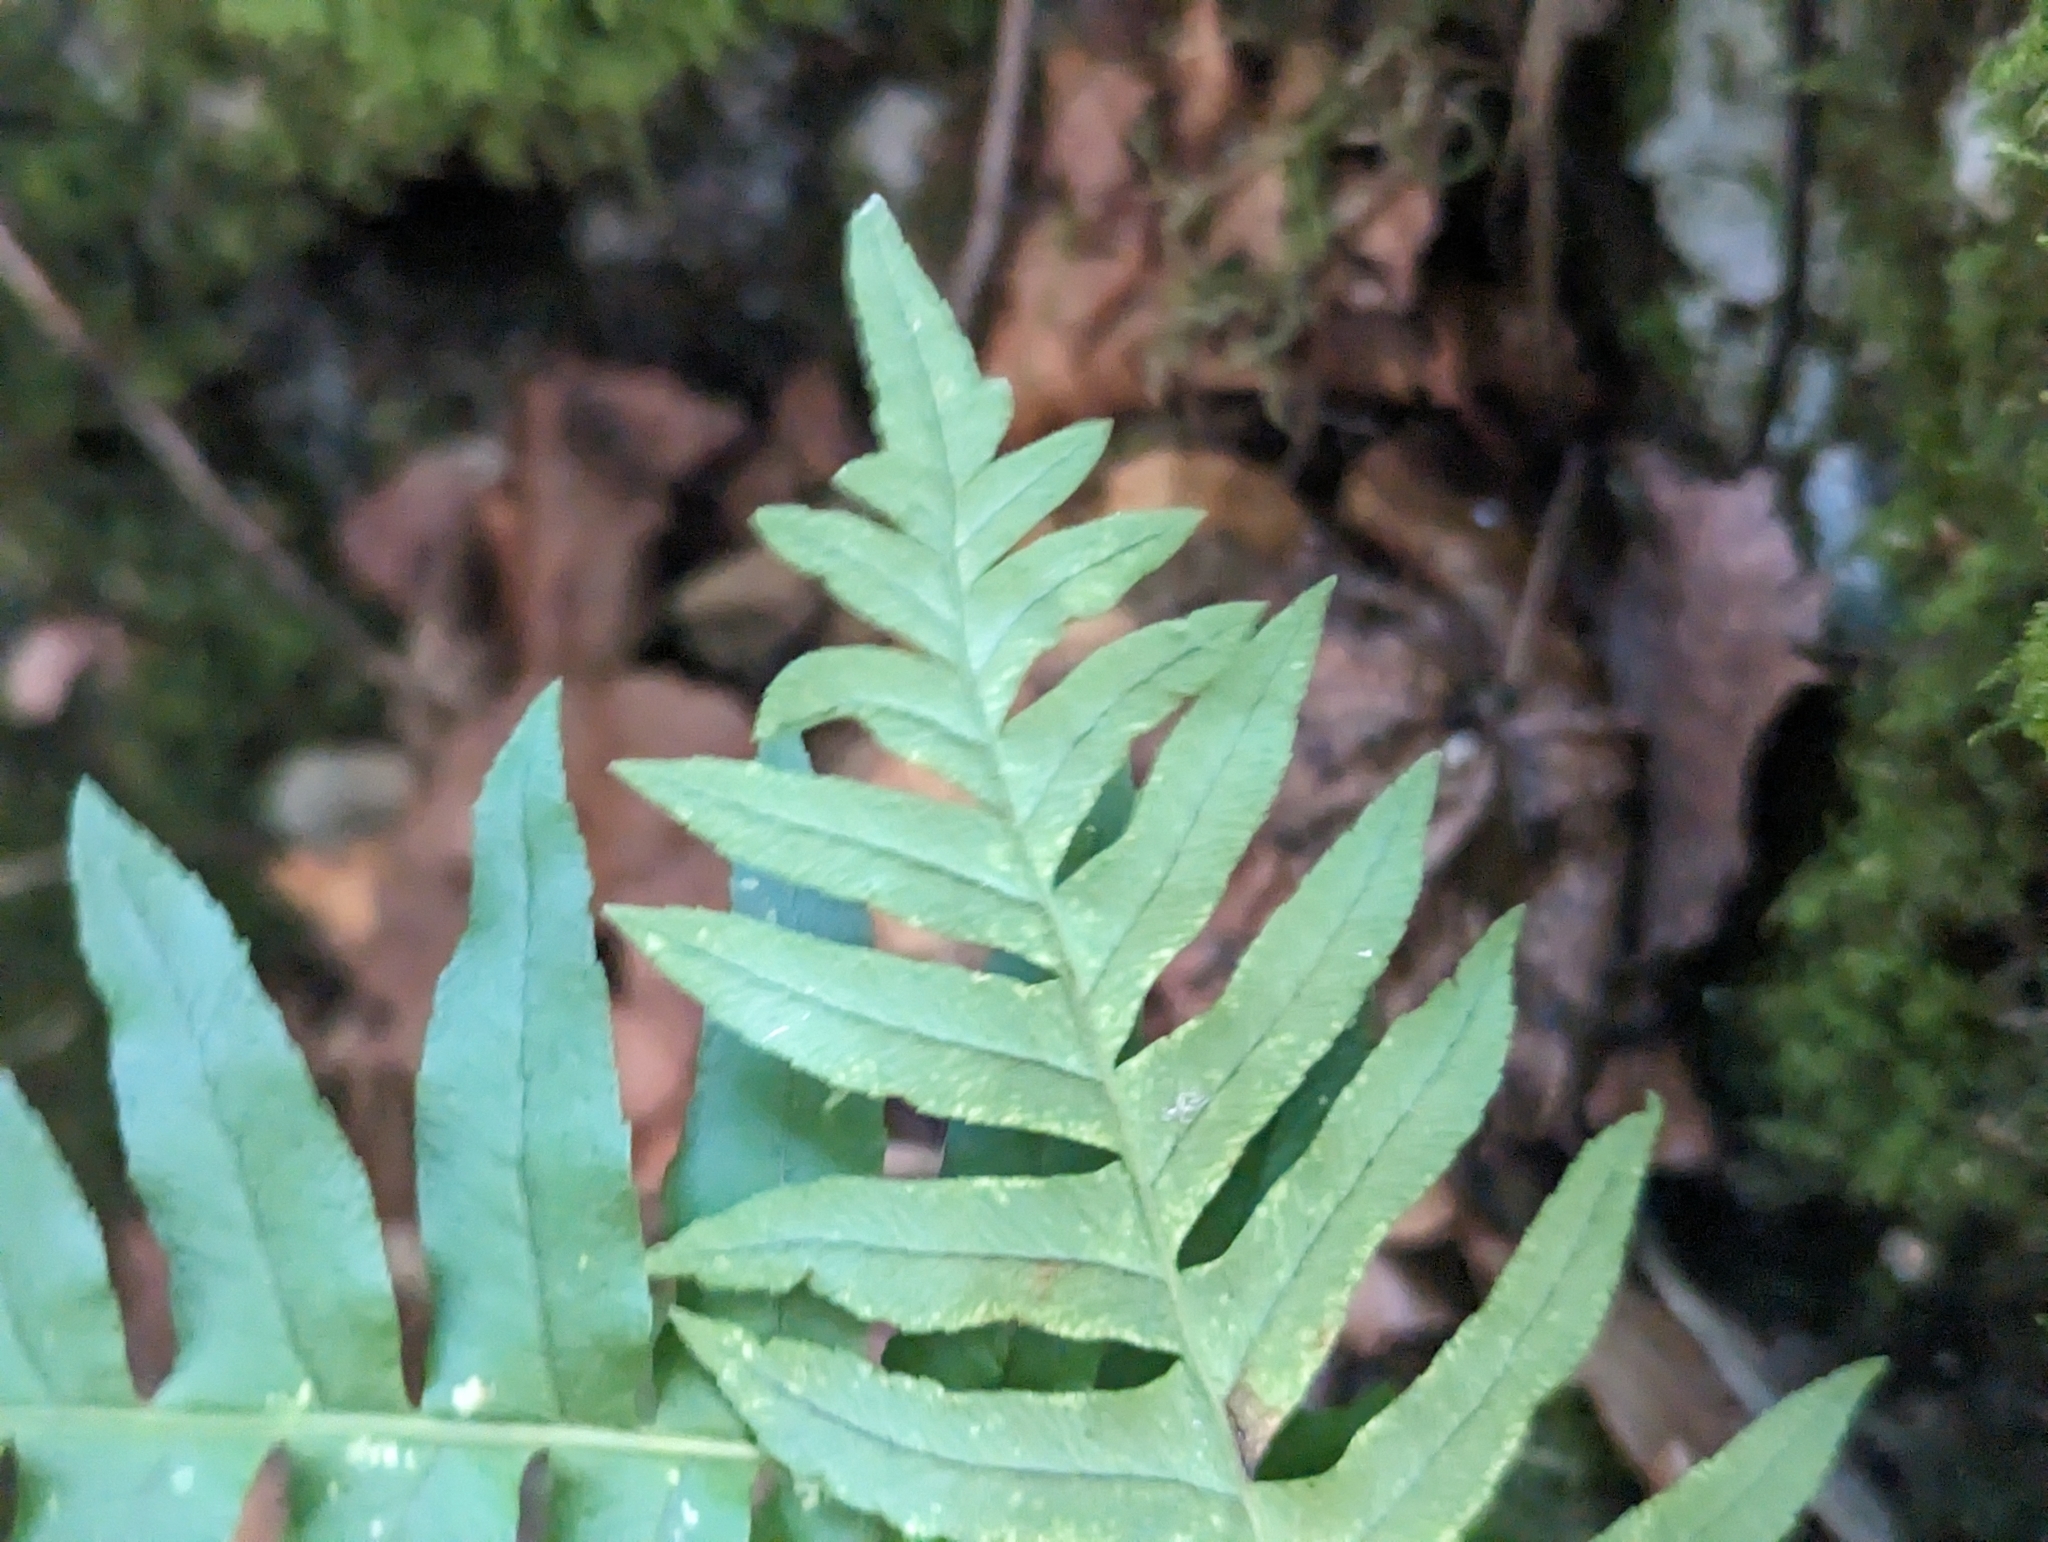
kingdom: Plantae
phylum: Tracheophyta
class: Polypodiopsida
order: Polypodiales
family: Polypodiaceae
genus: Polypodium
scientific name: Polypodium vulgare
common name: Common polypody
